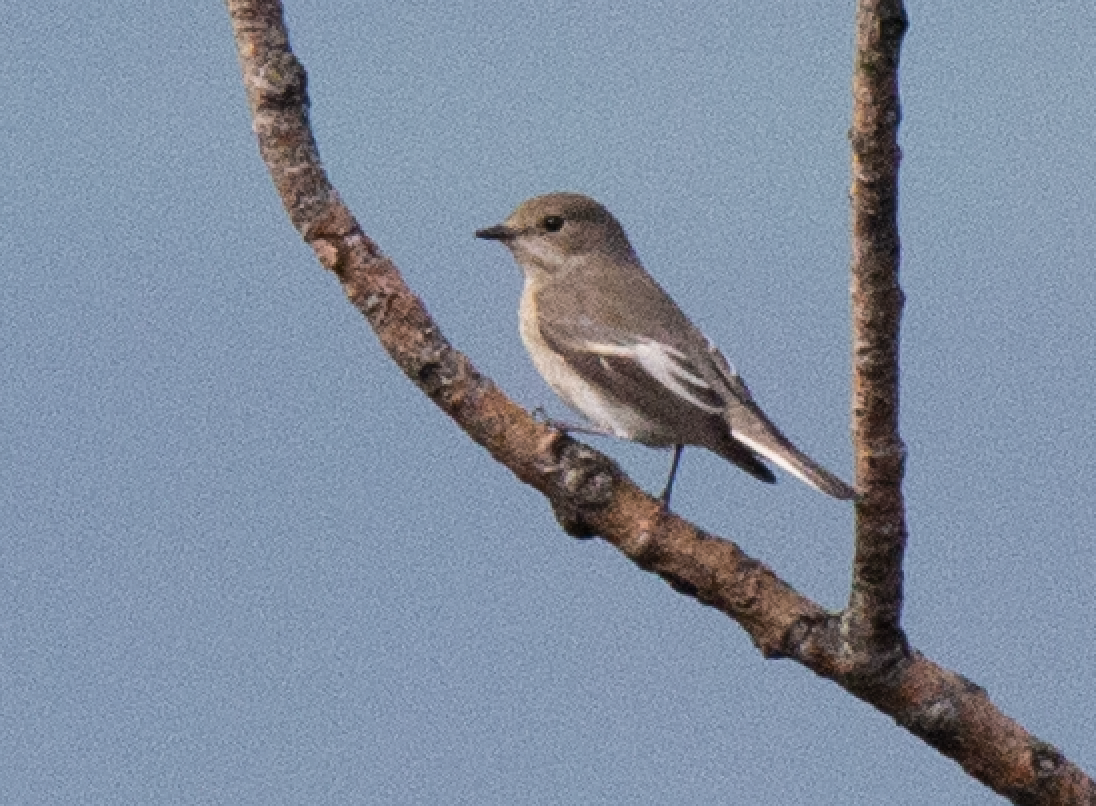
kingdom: Animalia
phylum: Chordata
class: Aves
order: Passeriformes
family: Muscicapidae
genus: Ficedula
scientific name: Ficedula hypoleuca
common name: European pied flycatcher
